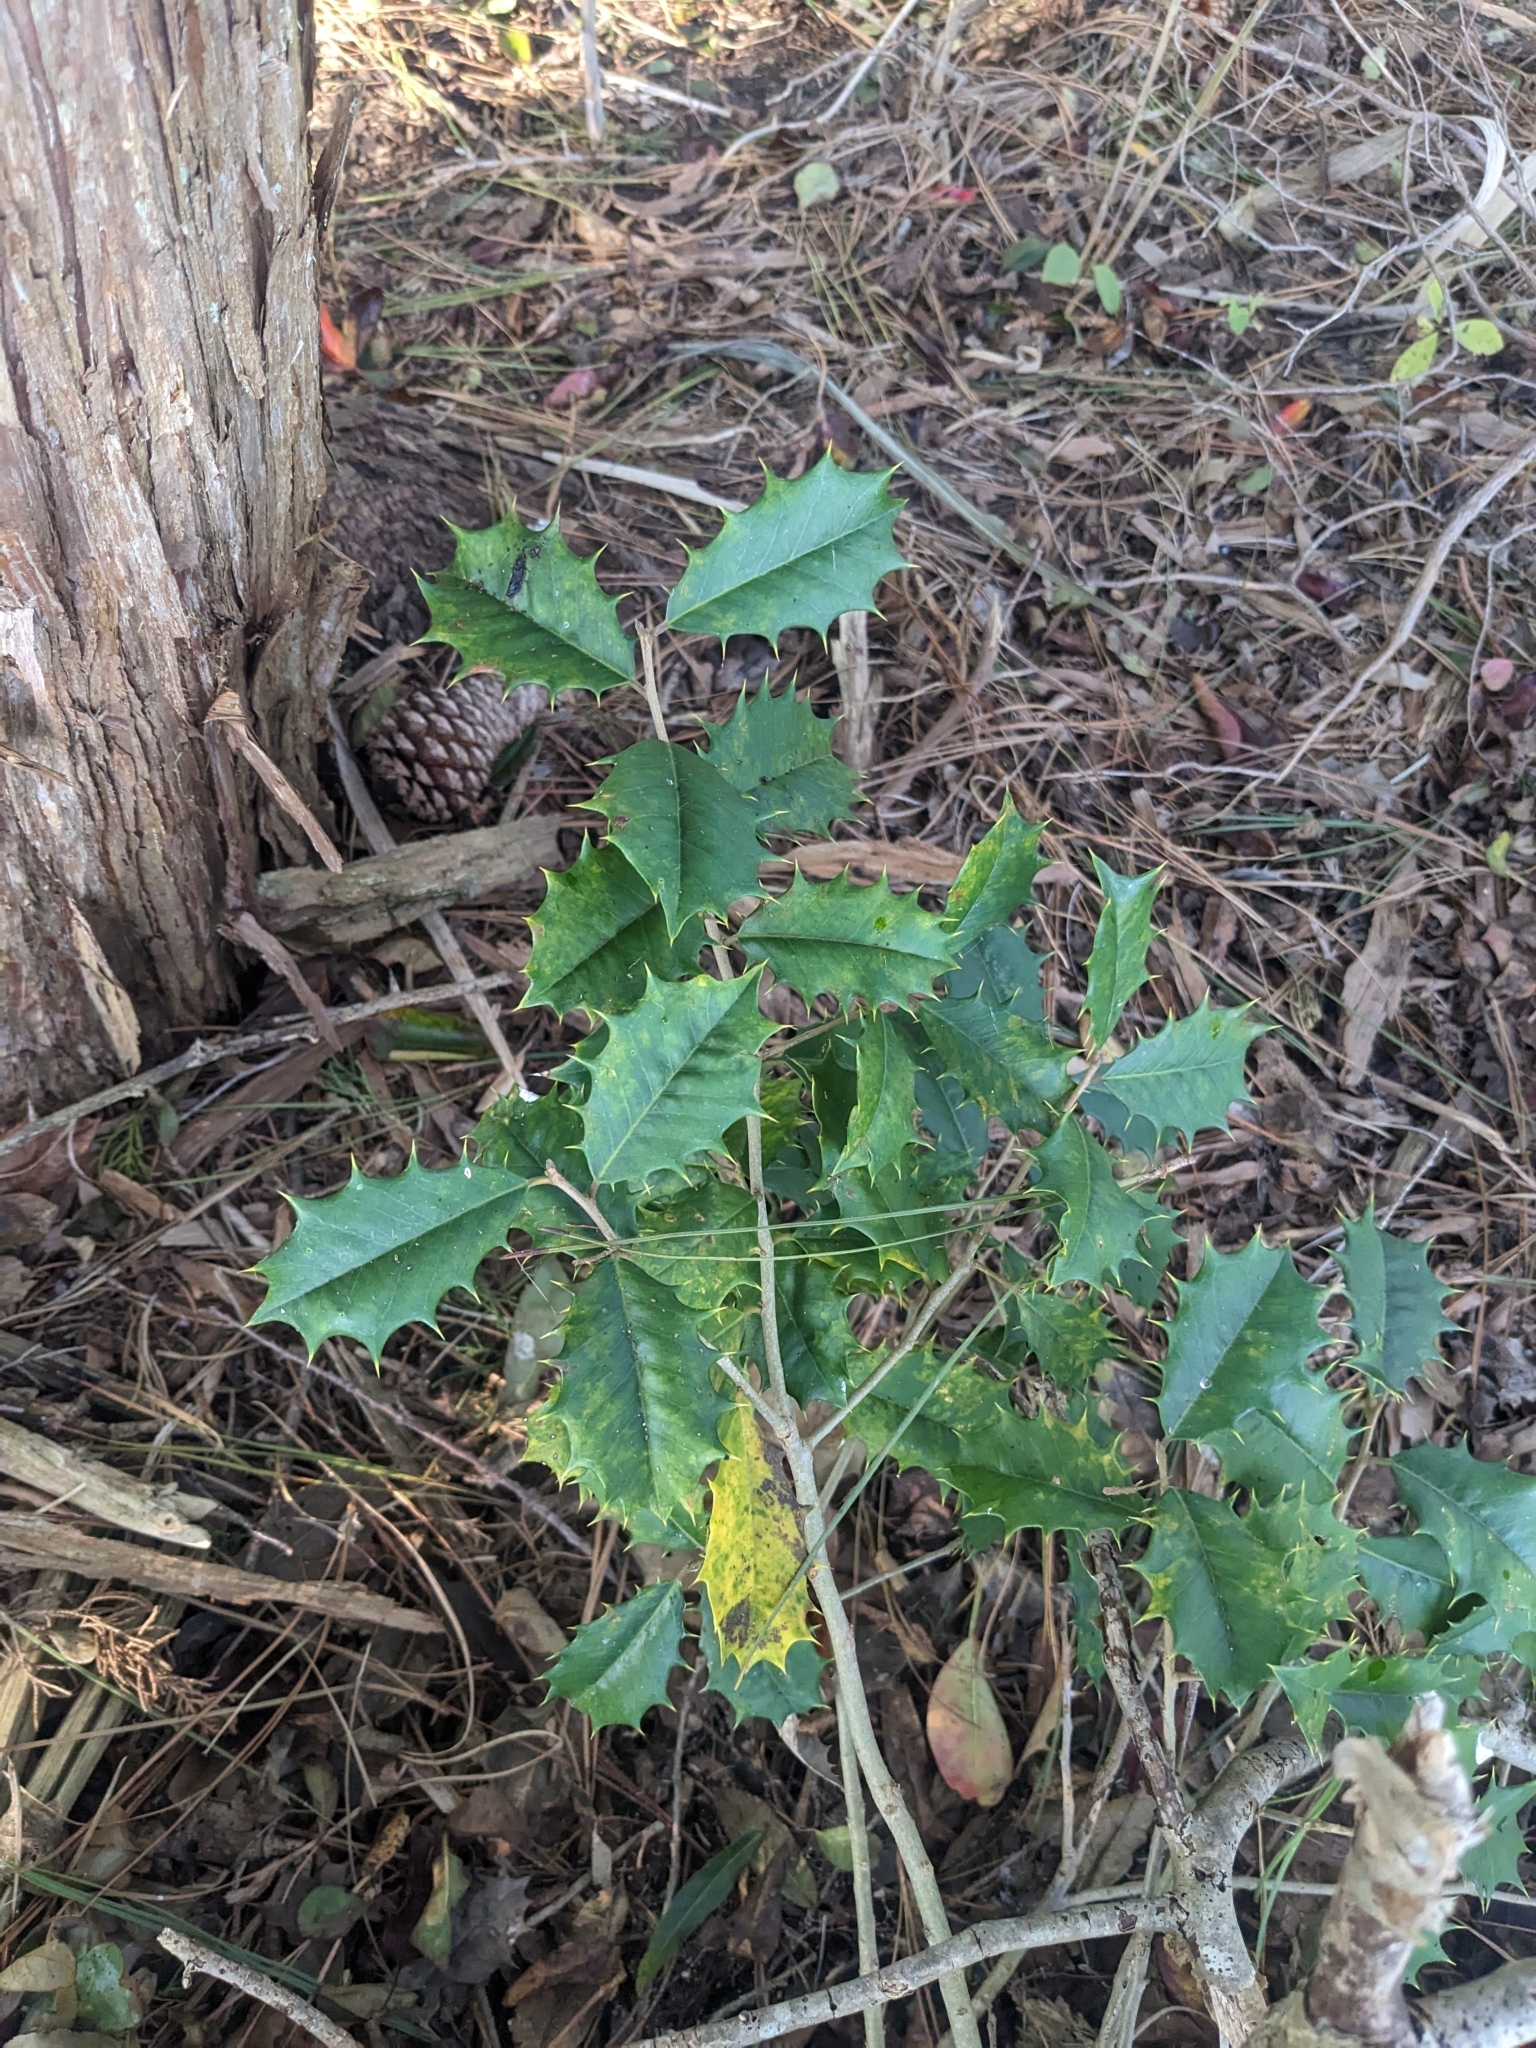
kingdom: Plantae
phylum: Tracheophyta
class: Magnoliopsida
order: Aquifoliales
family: Aquifoliaceae
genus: Ilex
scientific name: Ilex opaca
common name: American holly
